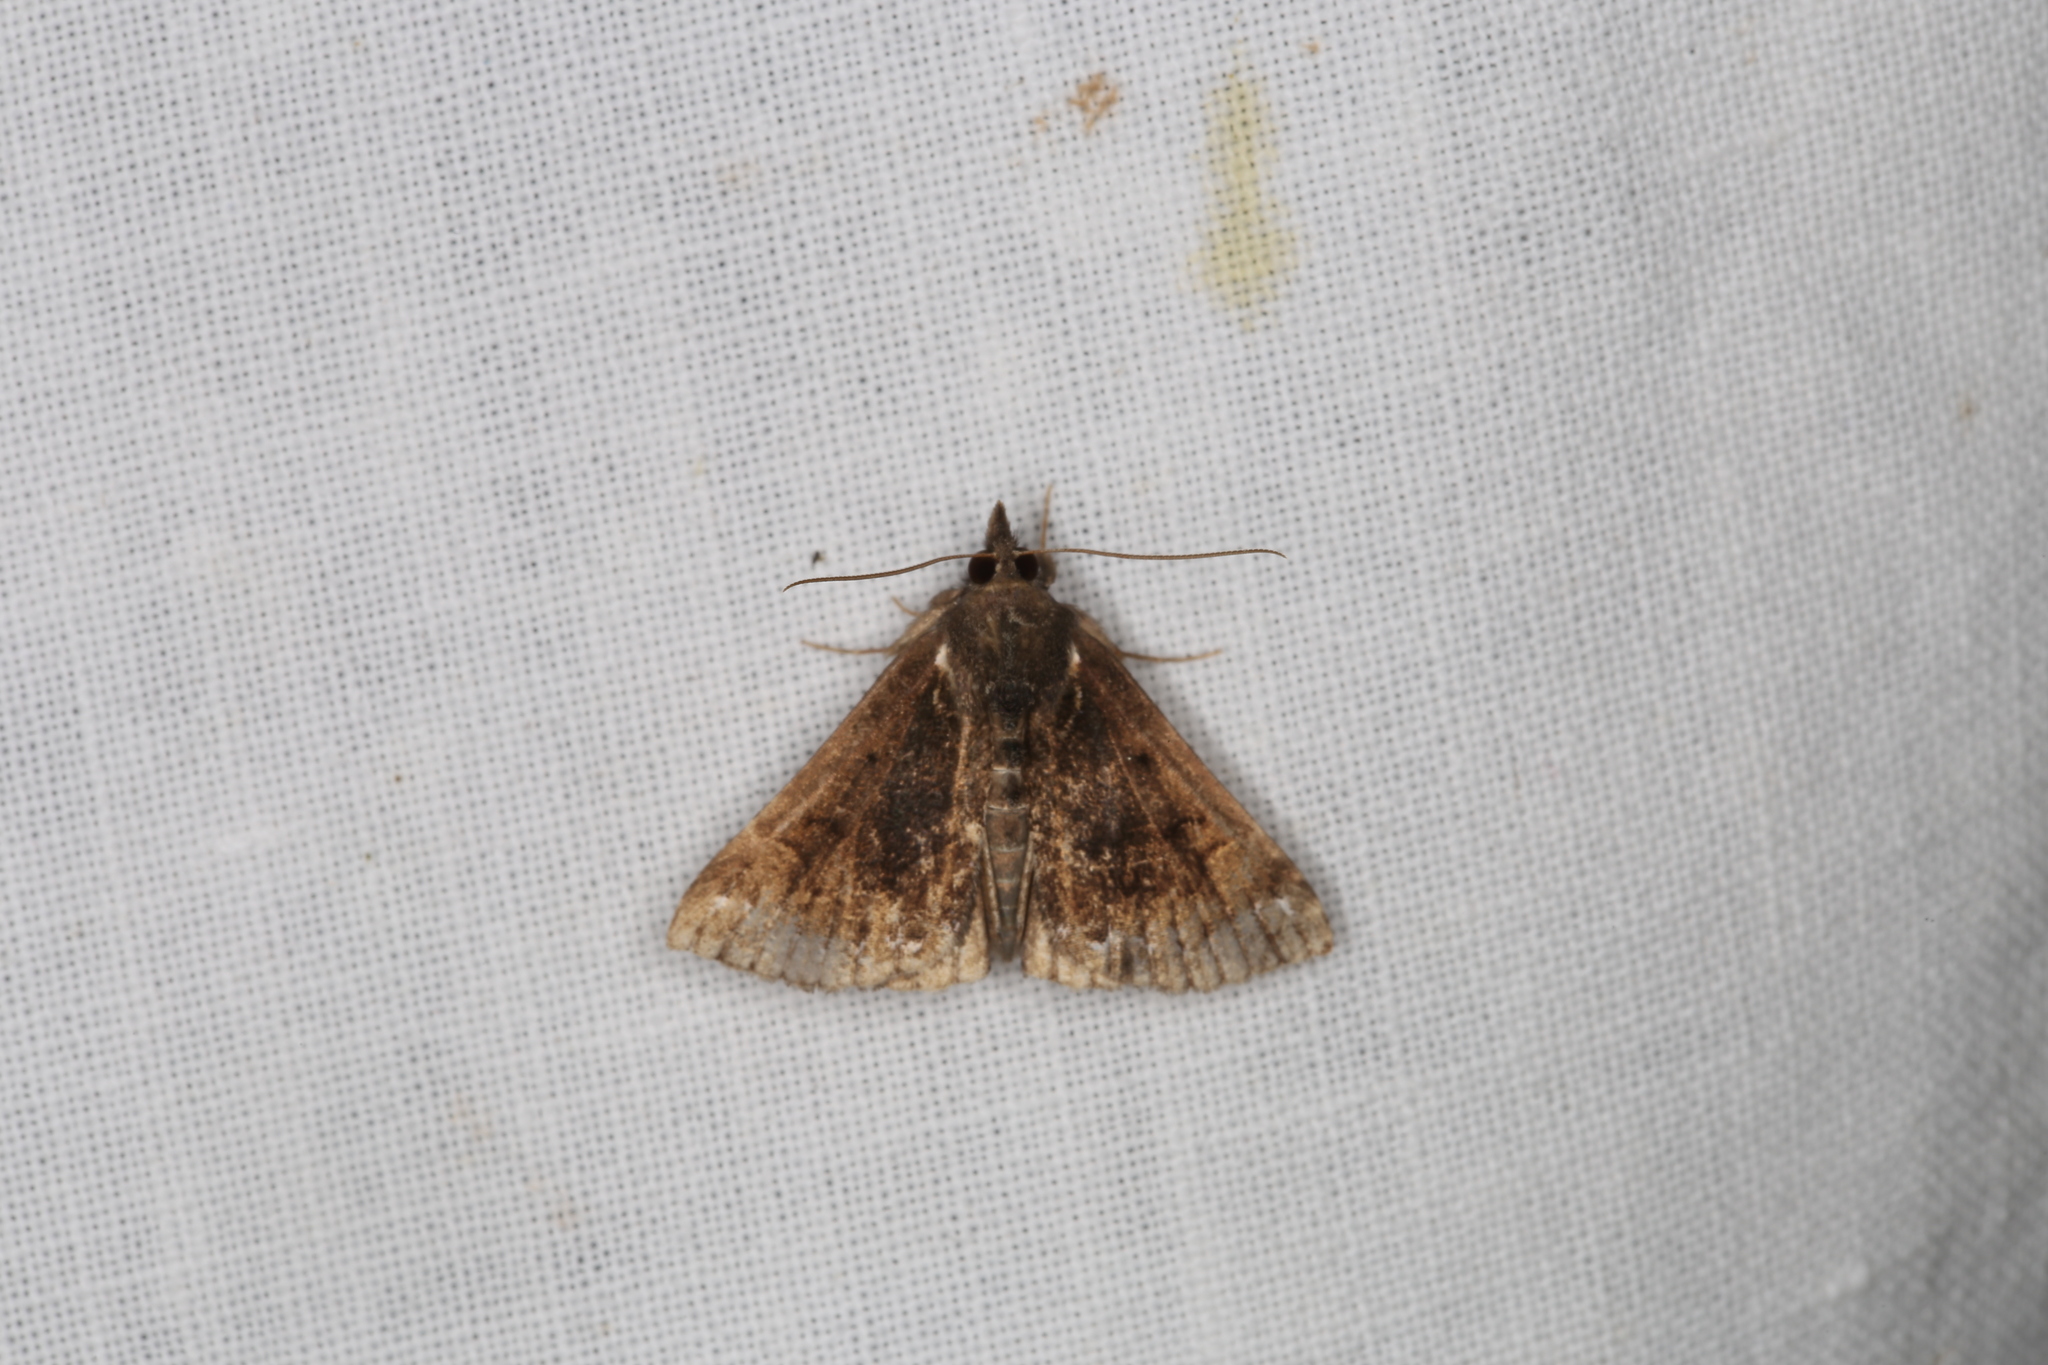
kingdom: Animalia
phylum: Arthropoda
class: Insecta
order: Lepidoptera
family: Erebidae
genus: Hypena
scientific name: Hypena crassalis
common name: Beautiful snout
